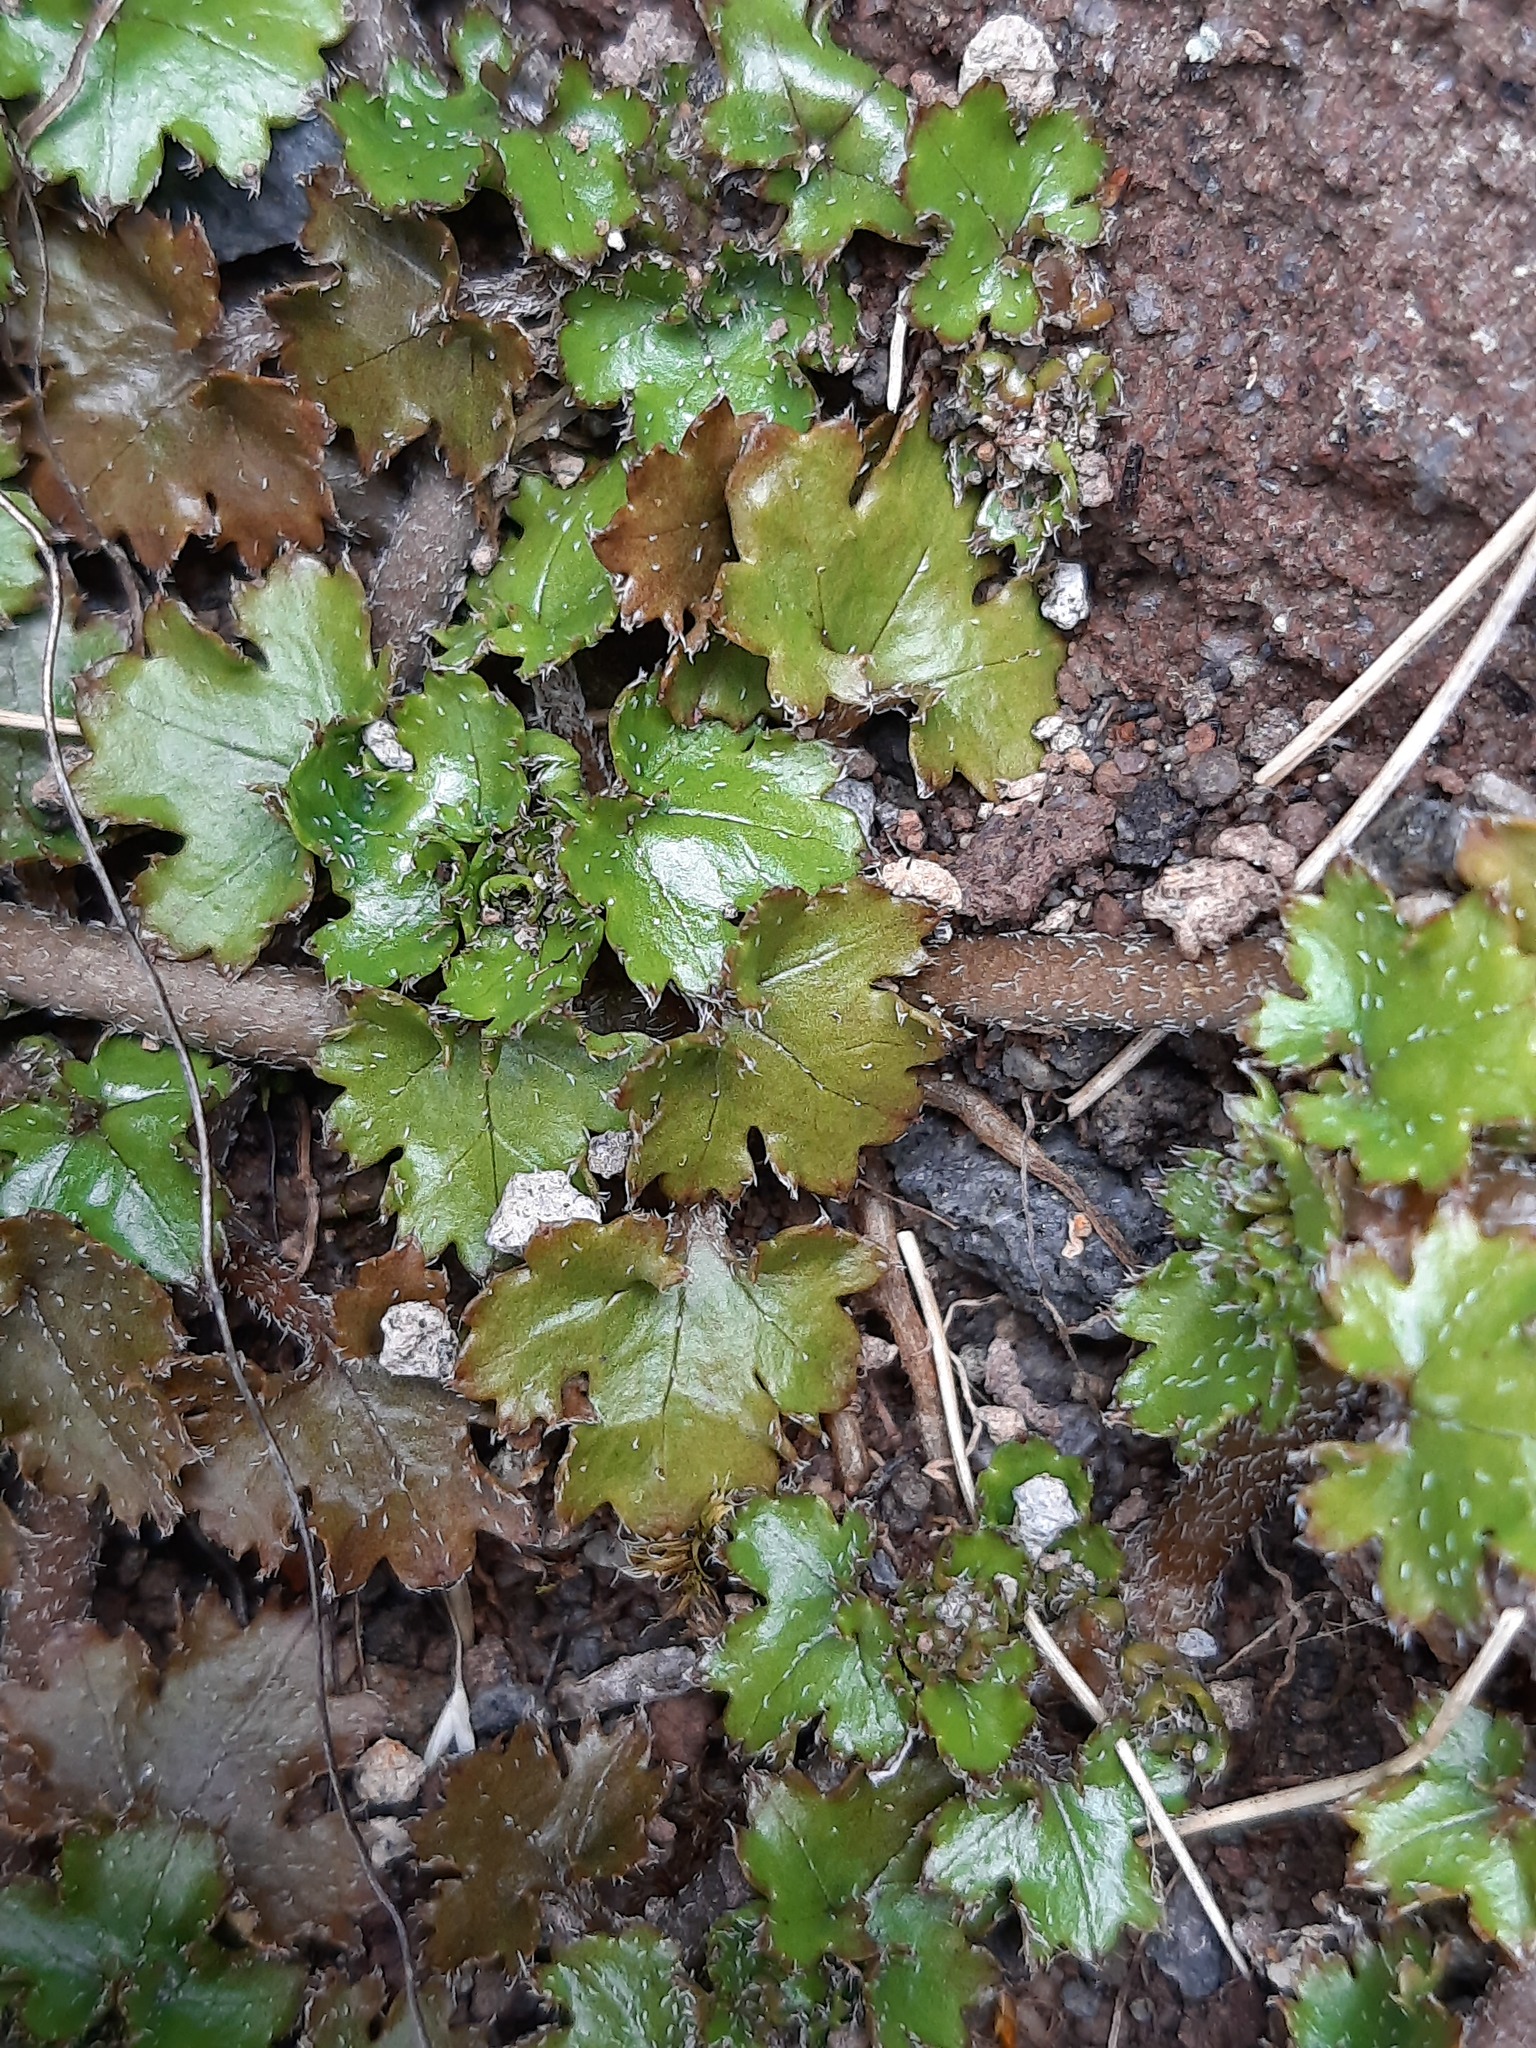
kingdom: Plantae
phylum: Tracheophyta
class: Magnoliopsida
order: Gunnerales
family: Gunneraceae
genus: Gunnera
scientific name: Gunnera monoica
